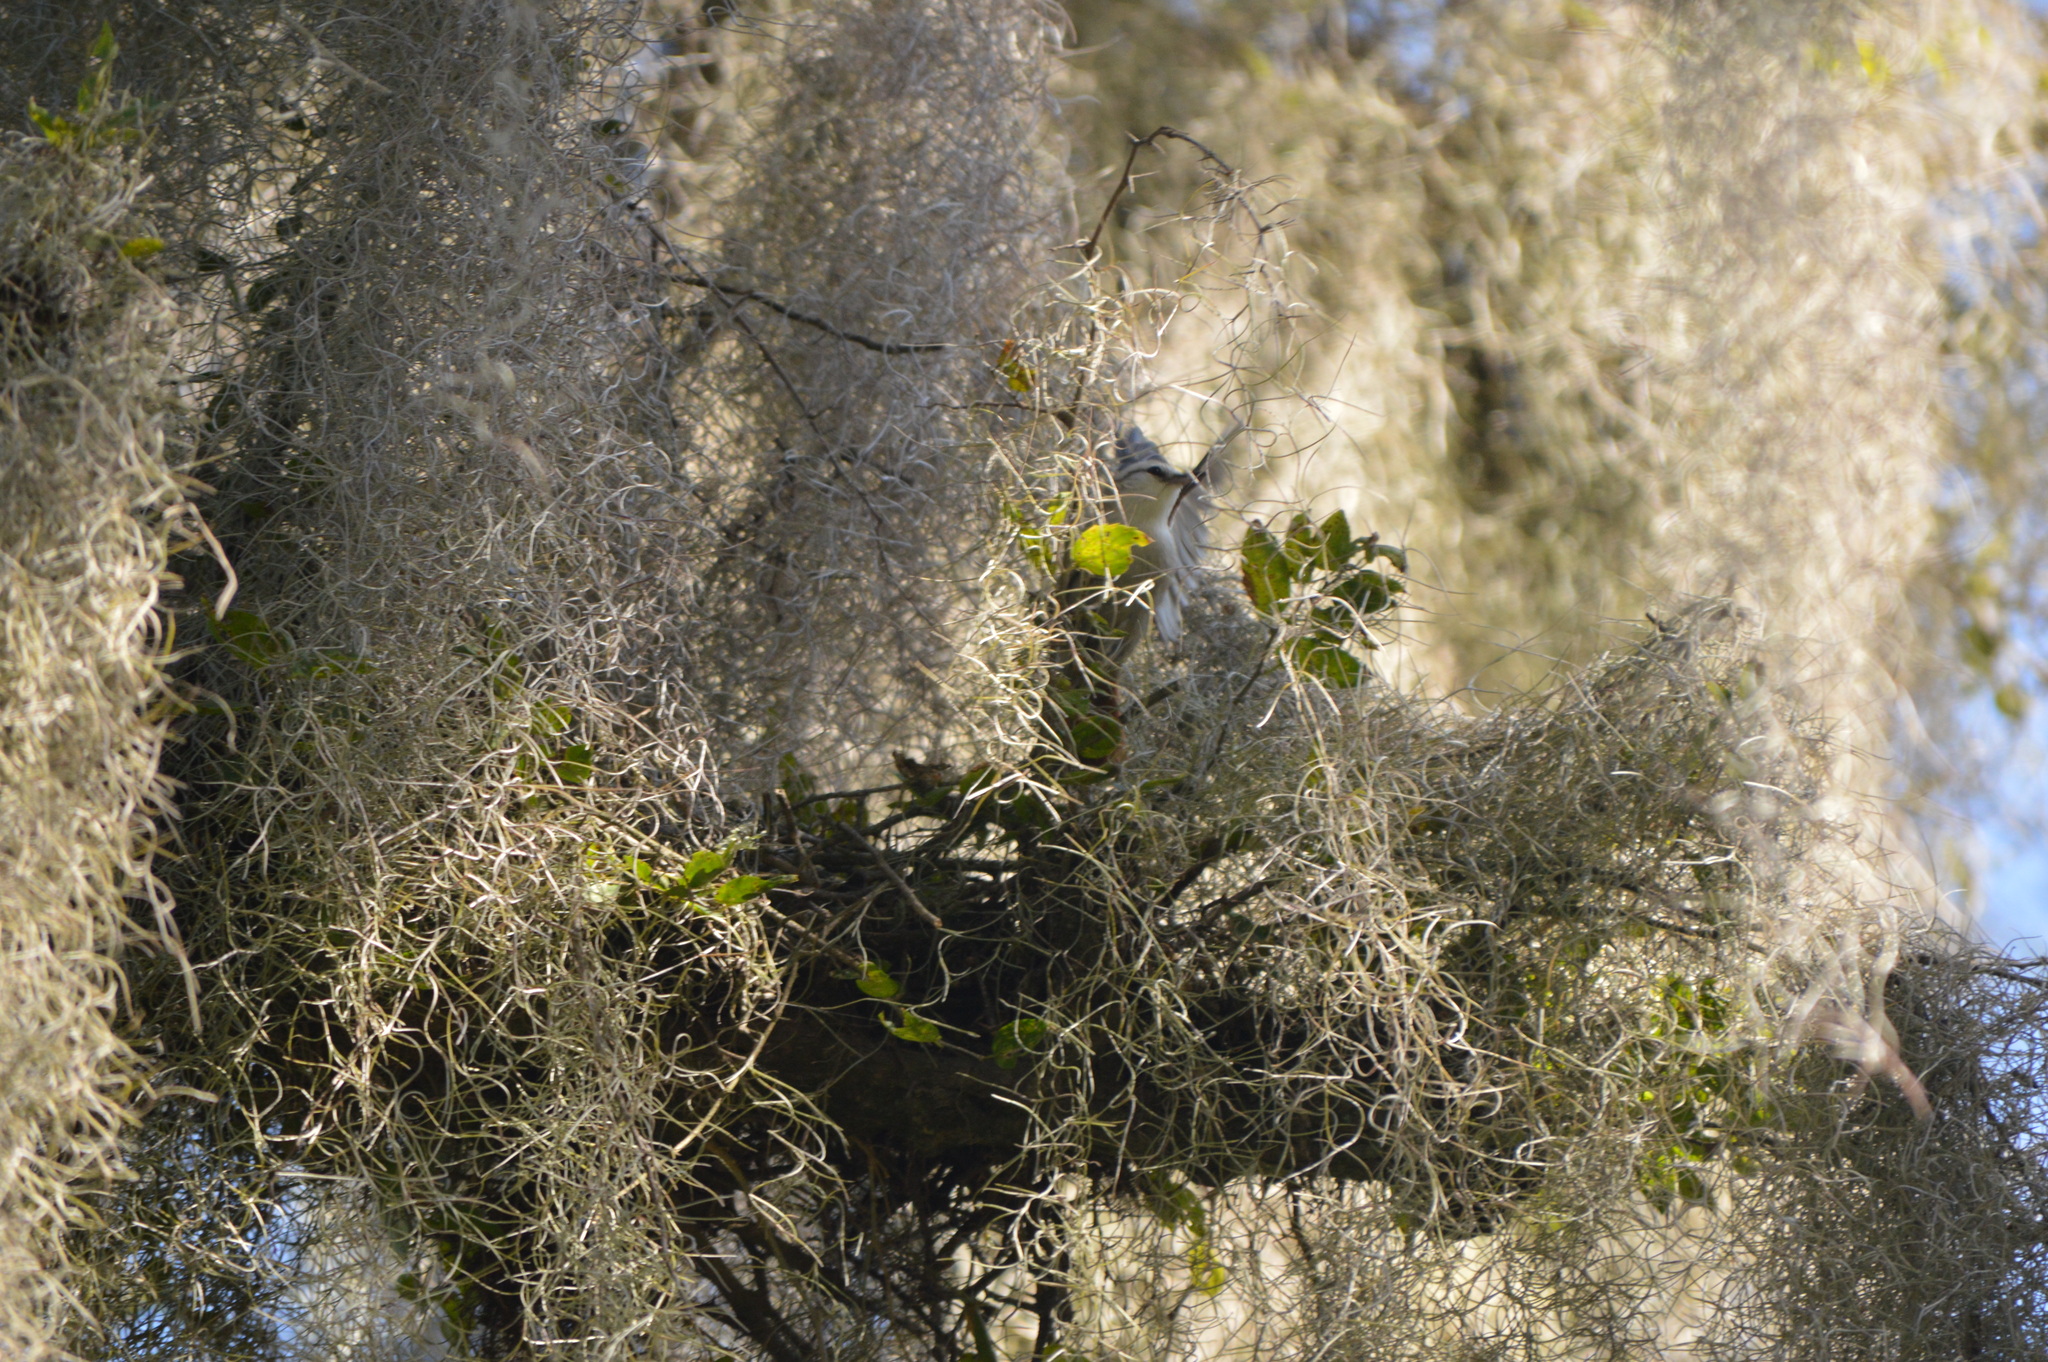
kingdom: Animalia
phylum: Chordata
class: Aves
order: Passeriformes
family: Furnariidae
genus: Cranioleuca
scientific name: Cranioleuca pyrrhophia
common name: Stripe-crowned spinetail
